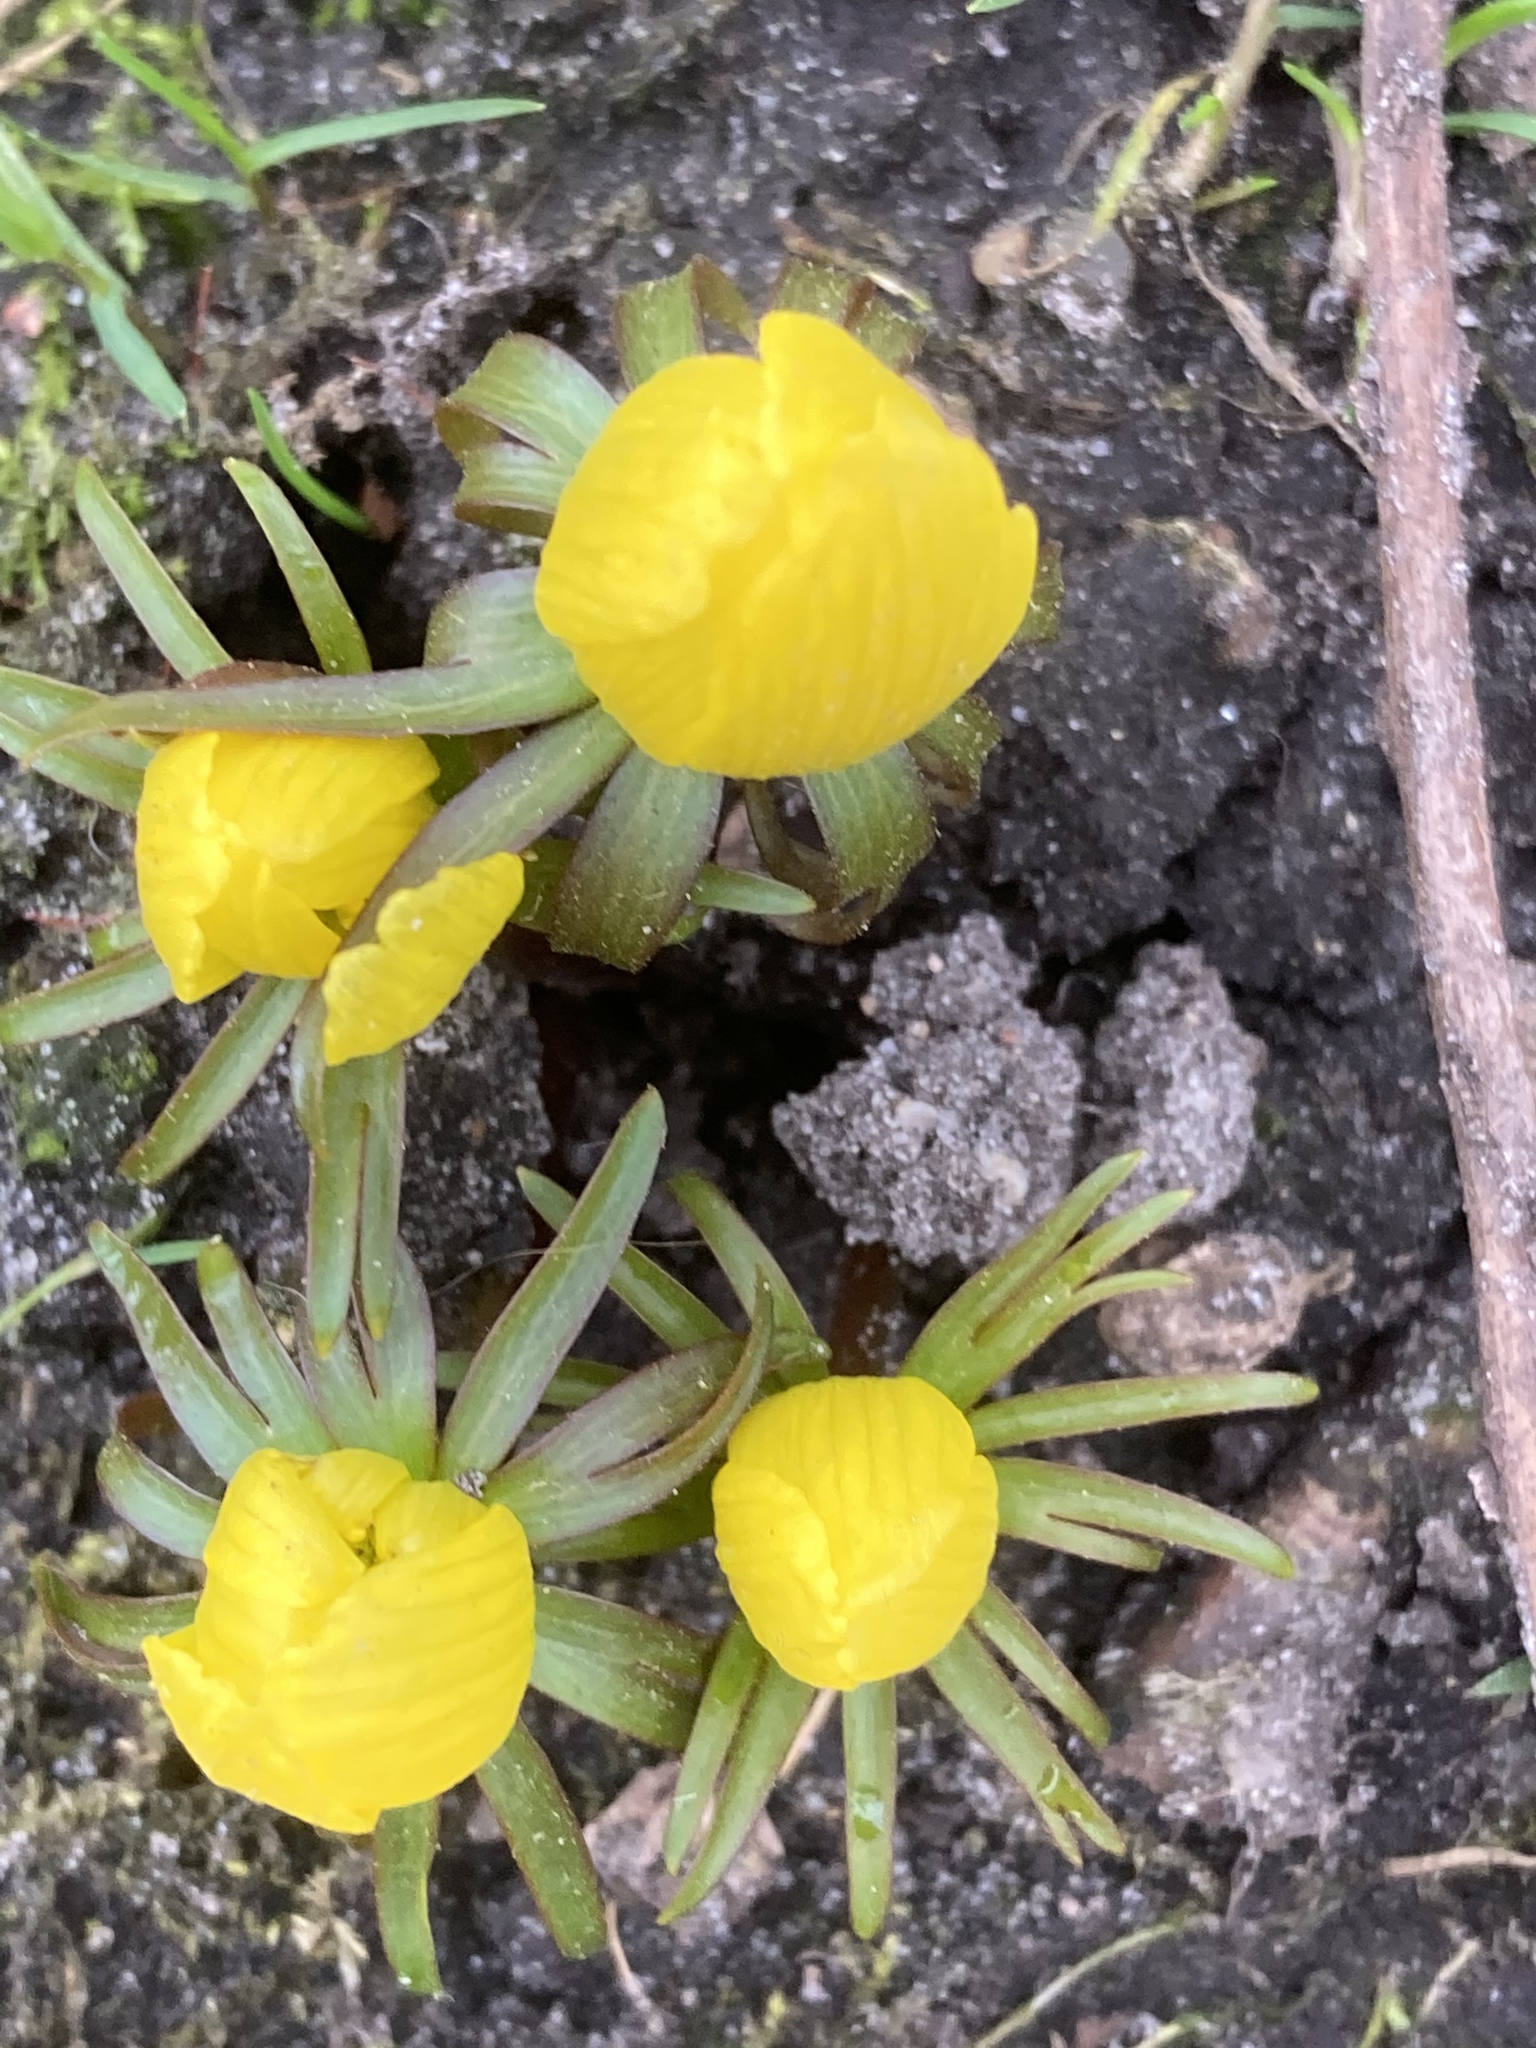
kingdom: Plantae
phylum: Tracheophyta
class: Magnoliopsida
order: Ranunculales
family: Ranunculaceae
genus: Eranthis
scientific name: Eranthis hyemalis
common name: Winter aconite
